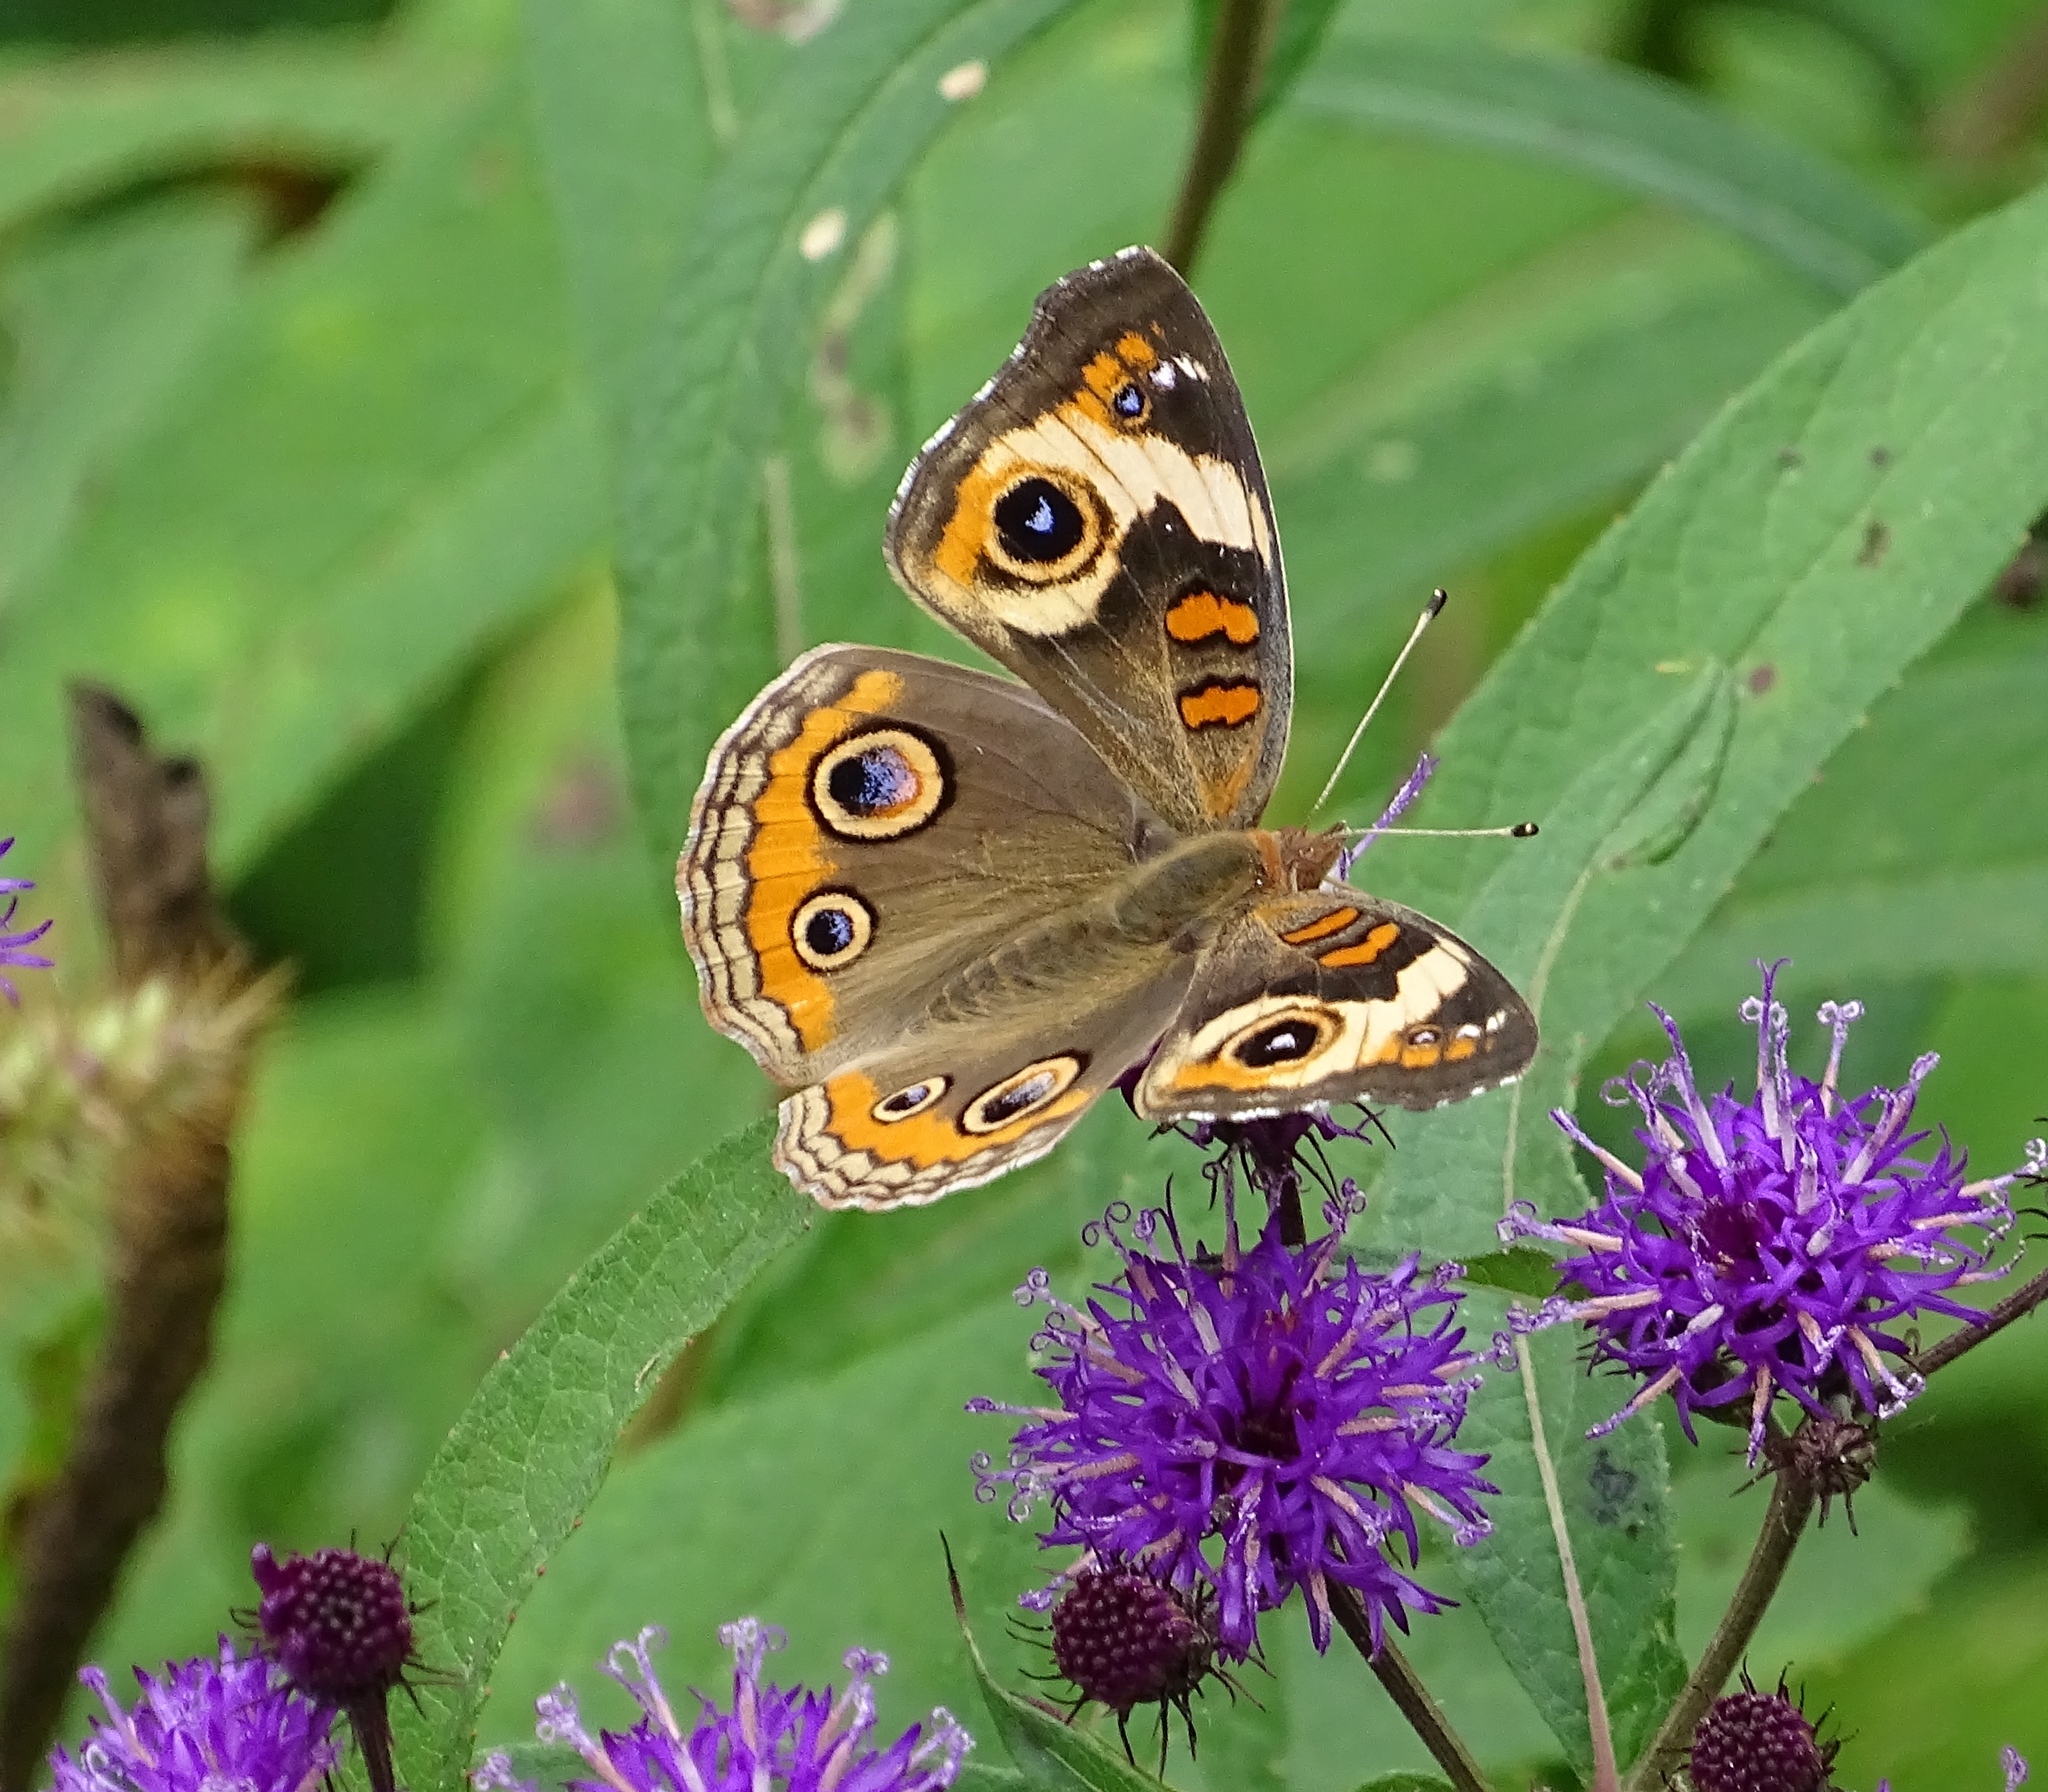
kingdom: Animalia
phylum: Arthropoda
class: Insecta
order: Lepidoptera
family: Nymphalidae
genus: Junonia
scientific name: Junonia coenia
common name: Common buckeye
